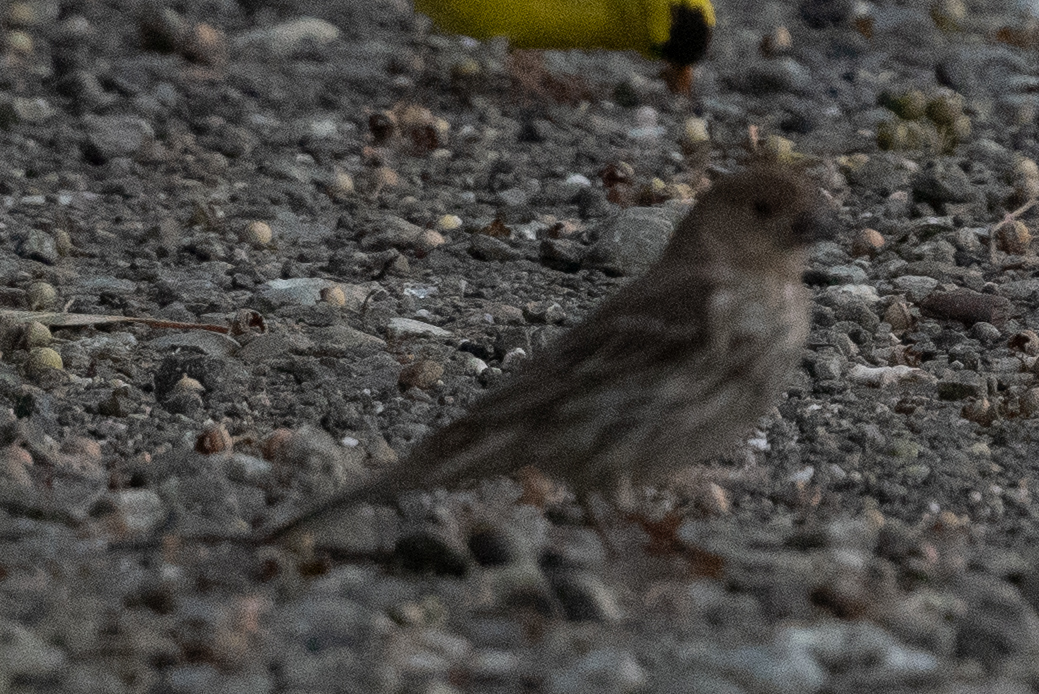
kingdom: Animalia
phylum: Chordata
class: Aves
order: Passeriformes
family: Fringillidae
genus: Haemorhous
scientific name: Haemorhous mexicanus
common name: House finch
